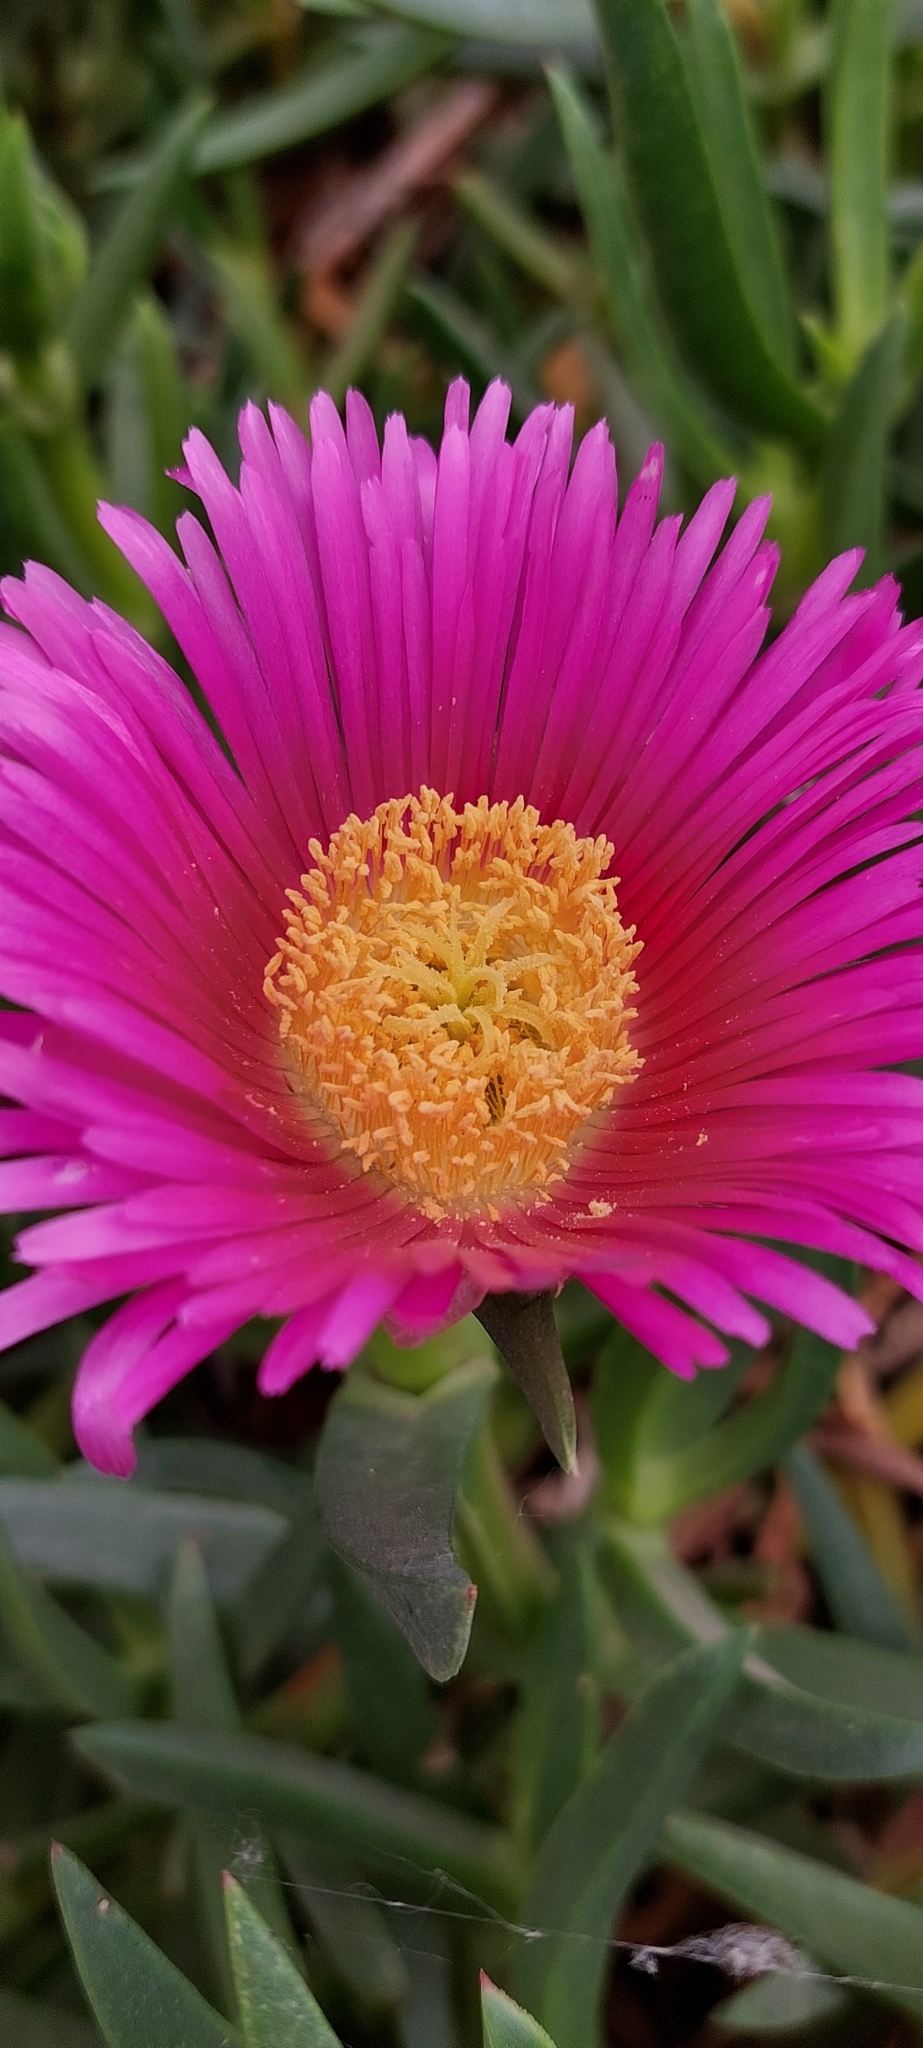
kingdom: Plantae
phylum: Tracheophyta
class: Magnoliopsida
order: Caryophyllales
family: Aizoaceae
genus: Carpobrotus
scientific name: Carpobrotus chilensis
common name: Sea fig
